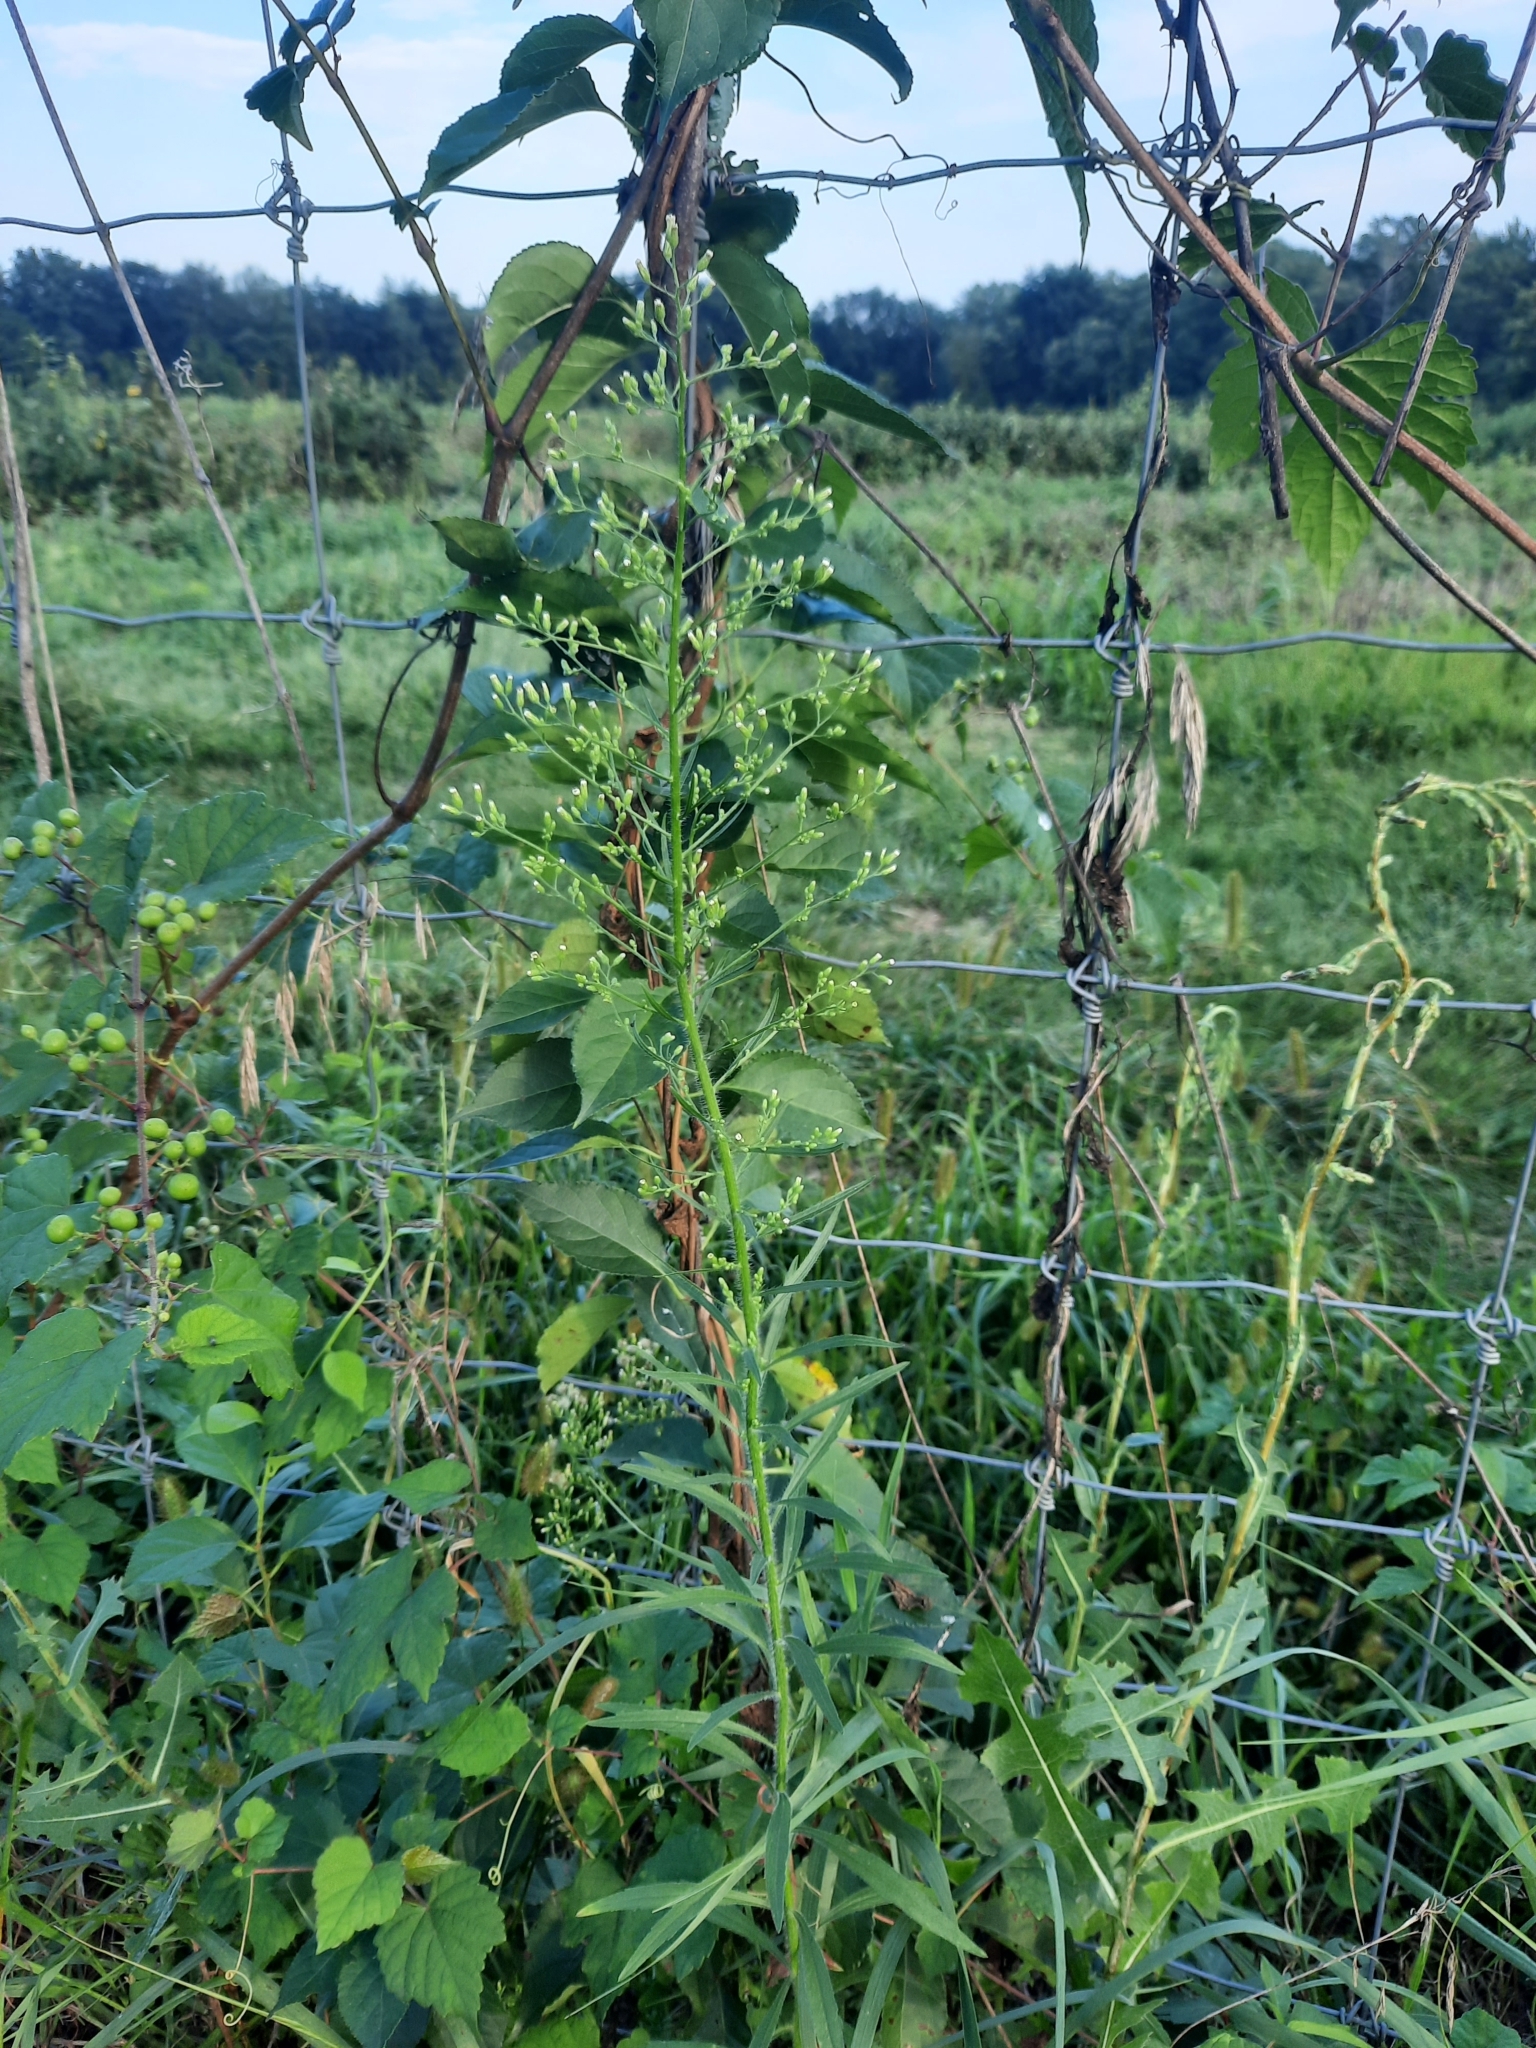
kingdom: Plantae
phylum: Tracheophyta
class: Magnoliopsida
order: Asterales
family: Asteraceae
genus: Erigeron
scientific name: Erigeron canadensis
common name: Canadian fleabane
